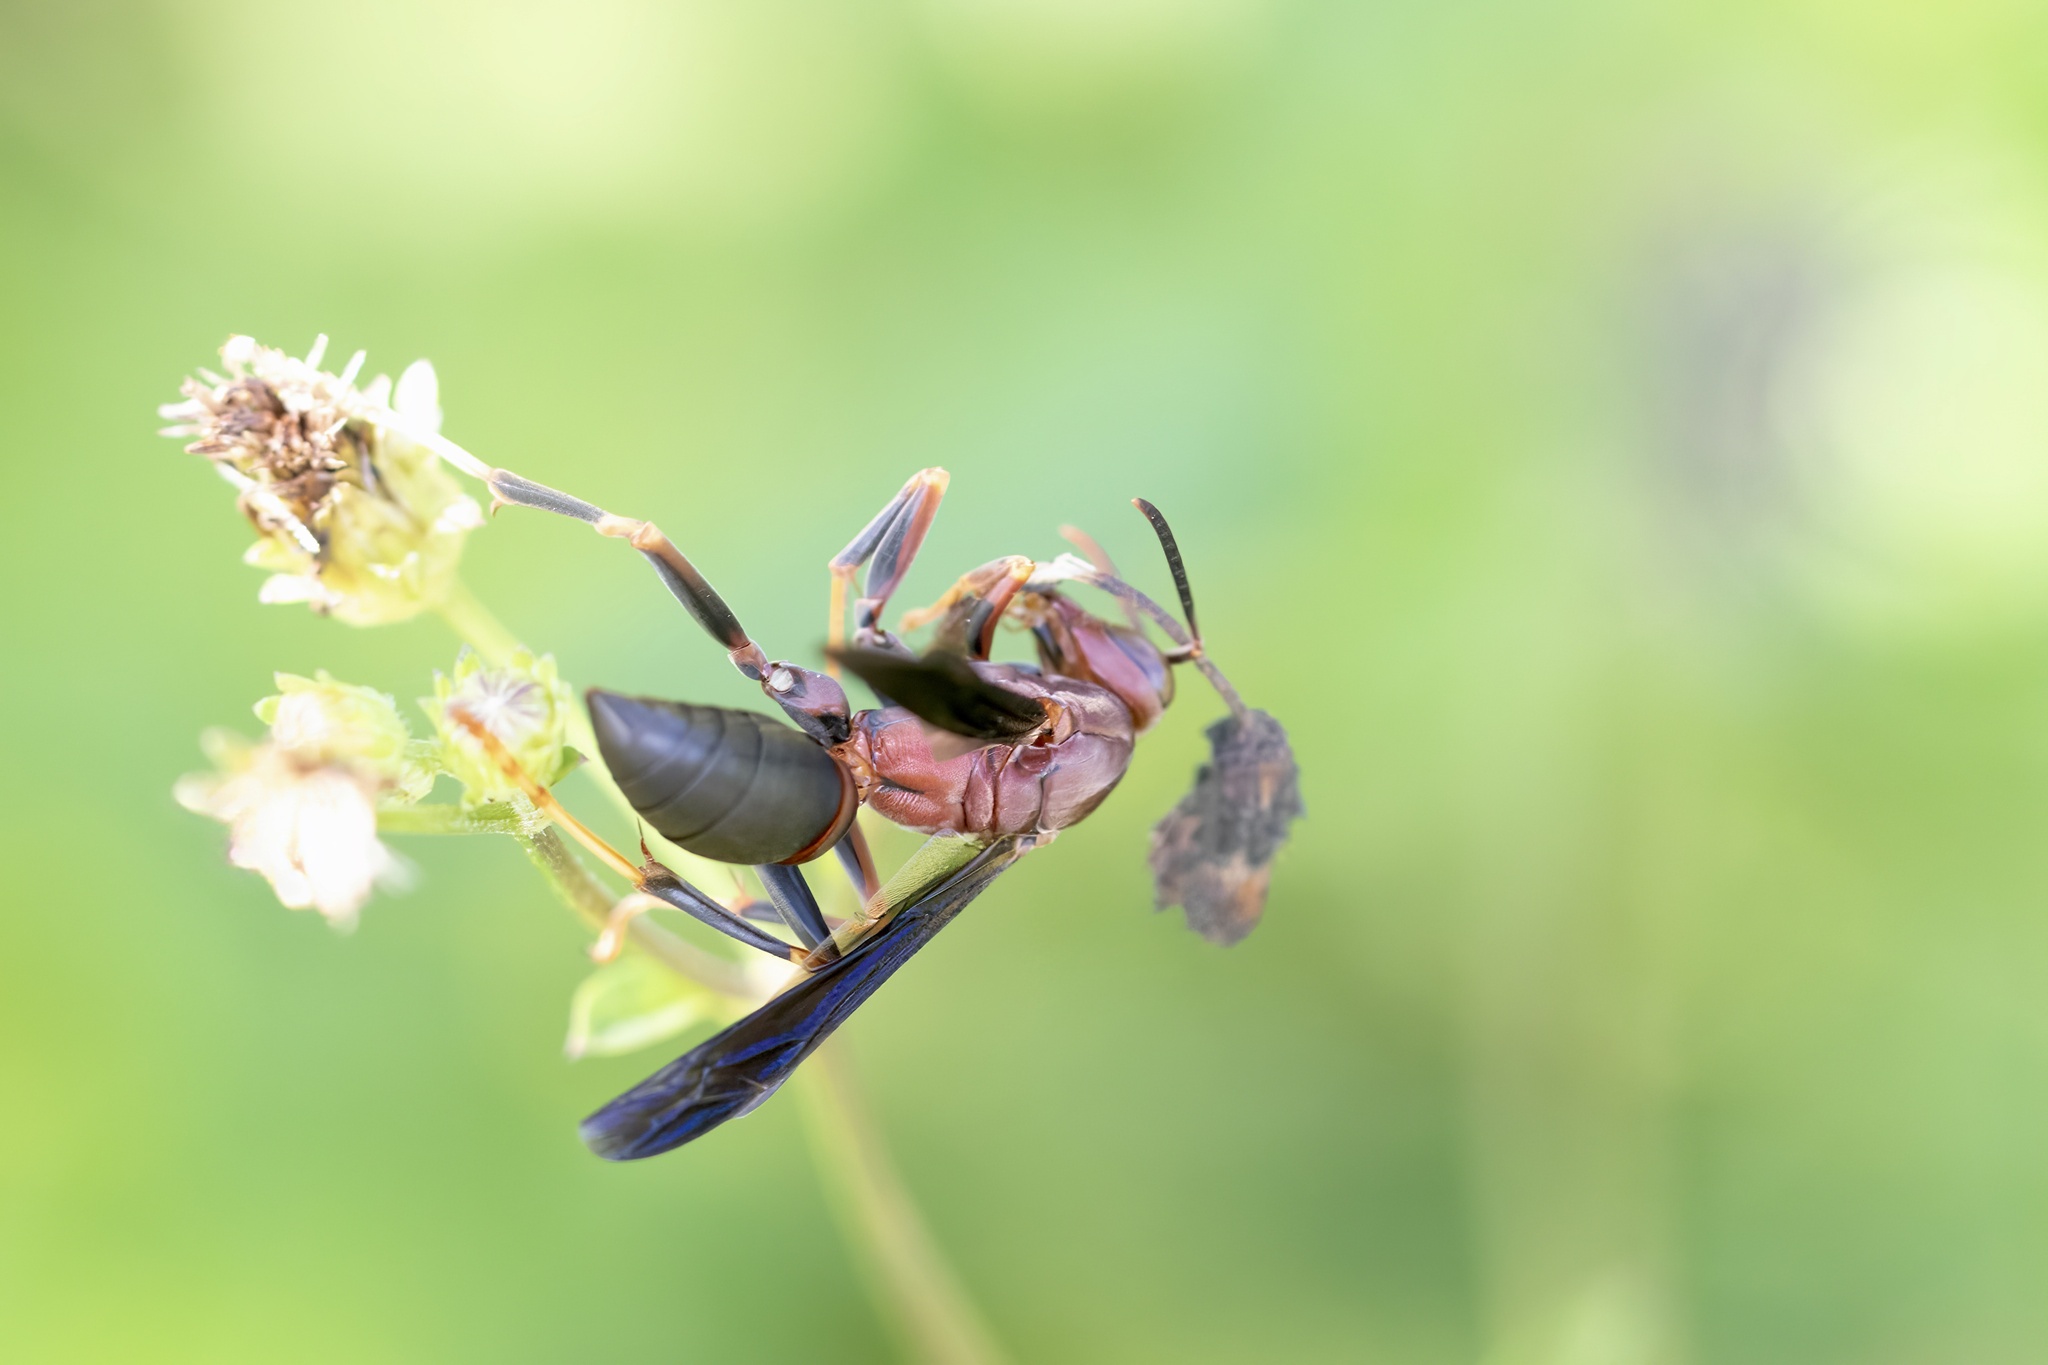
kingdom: Animalia
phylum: Arthropoda
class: Insecta
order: Hymenoptera
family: Eumenidae
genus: Polistes
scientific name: Polistes metricus
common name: Metric paper wasp
